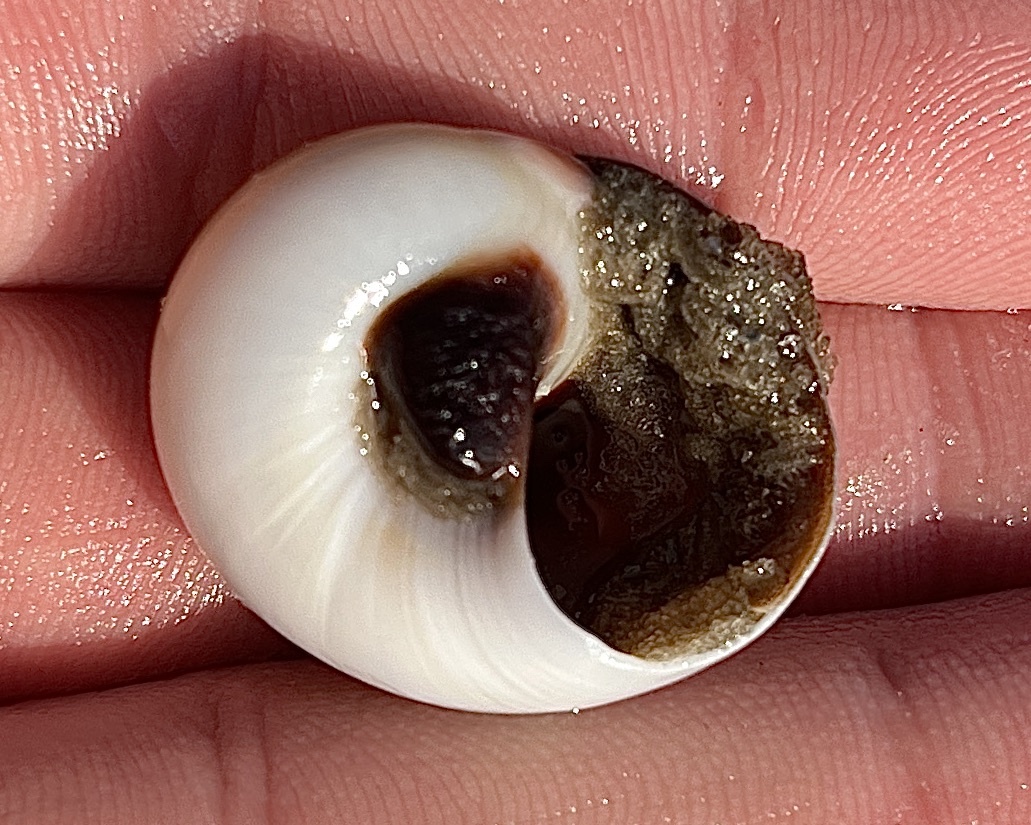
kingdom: Animalia
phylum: Mollusca
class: Gastropoda
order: Littorinimorpha
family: Naticidae
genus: Neverita
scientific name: Neverita duplicata
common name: Lobed moonsnail
